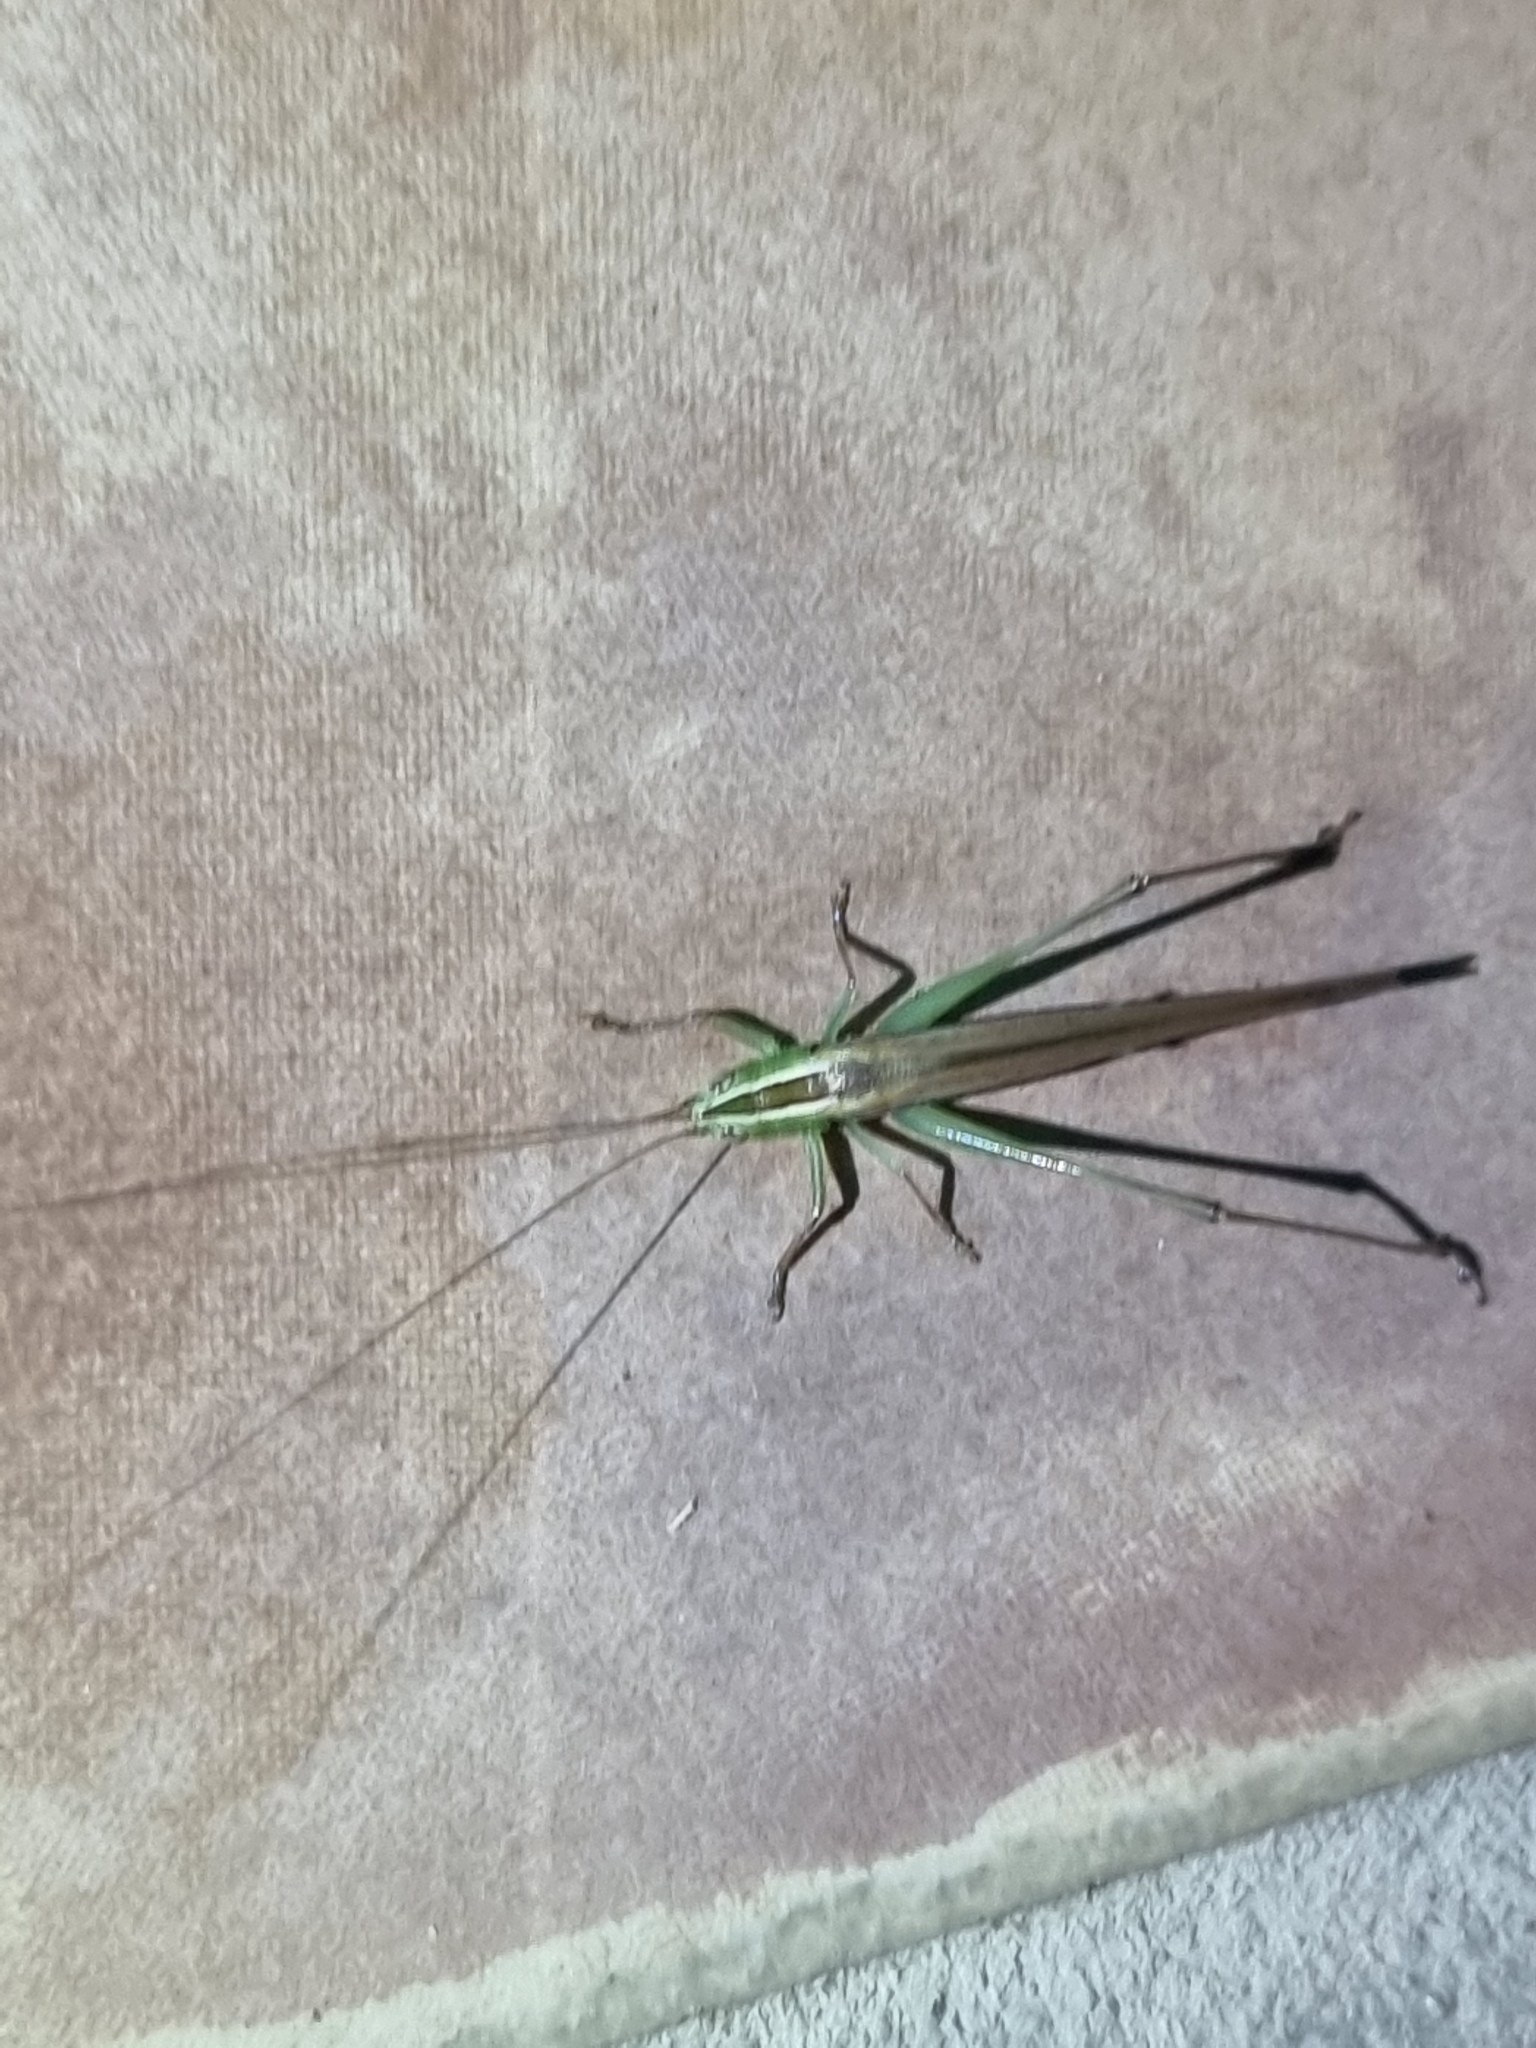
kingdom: Animalia
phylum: Arthropoda
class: Insecta
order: Orthoptera
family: Tettigoniidae
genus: Conocephalus
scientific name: Conocephalus upoluensis
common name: Upolu meadow katydid
